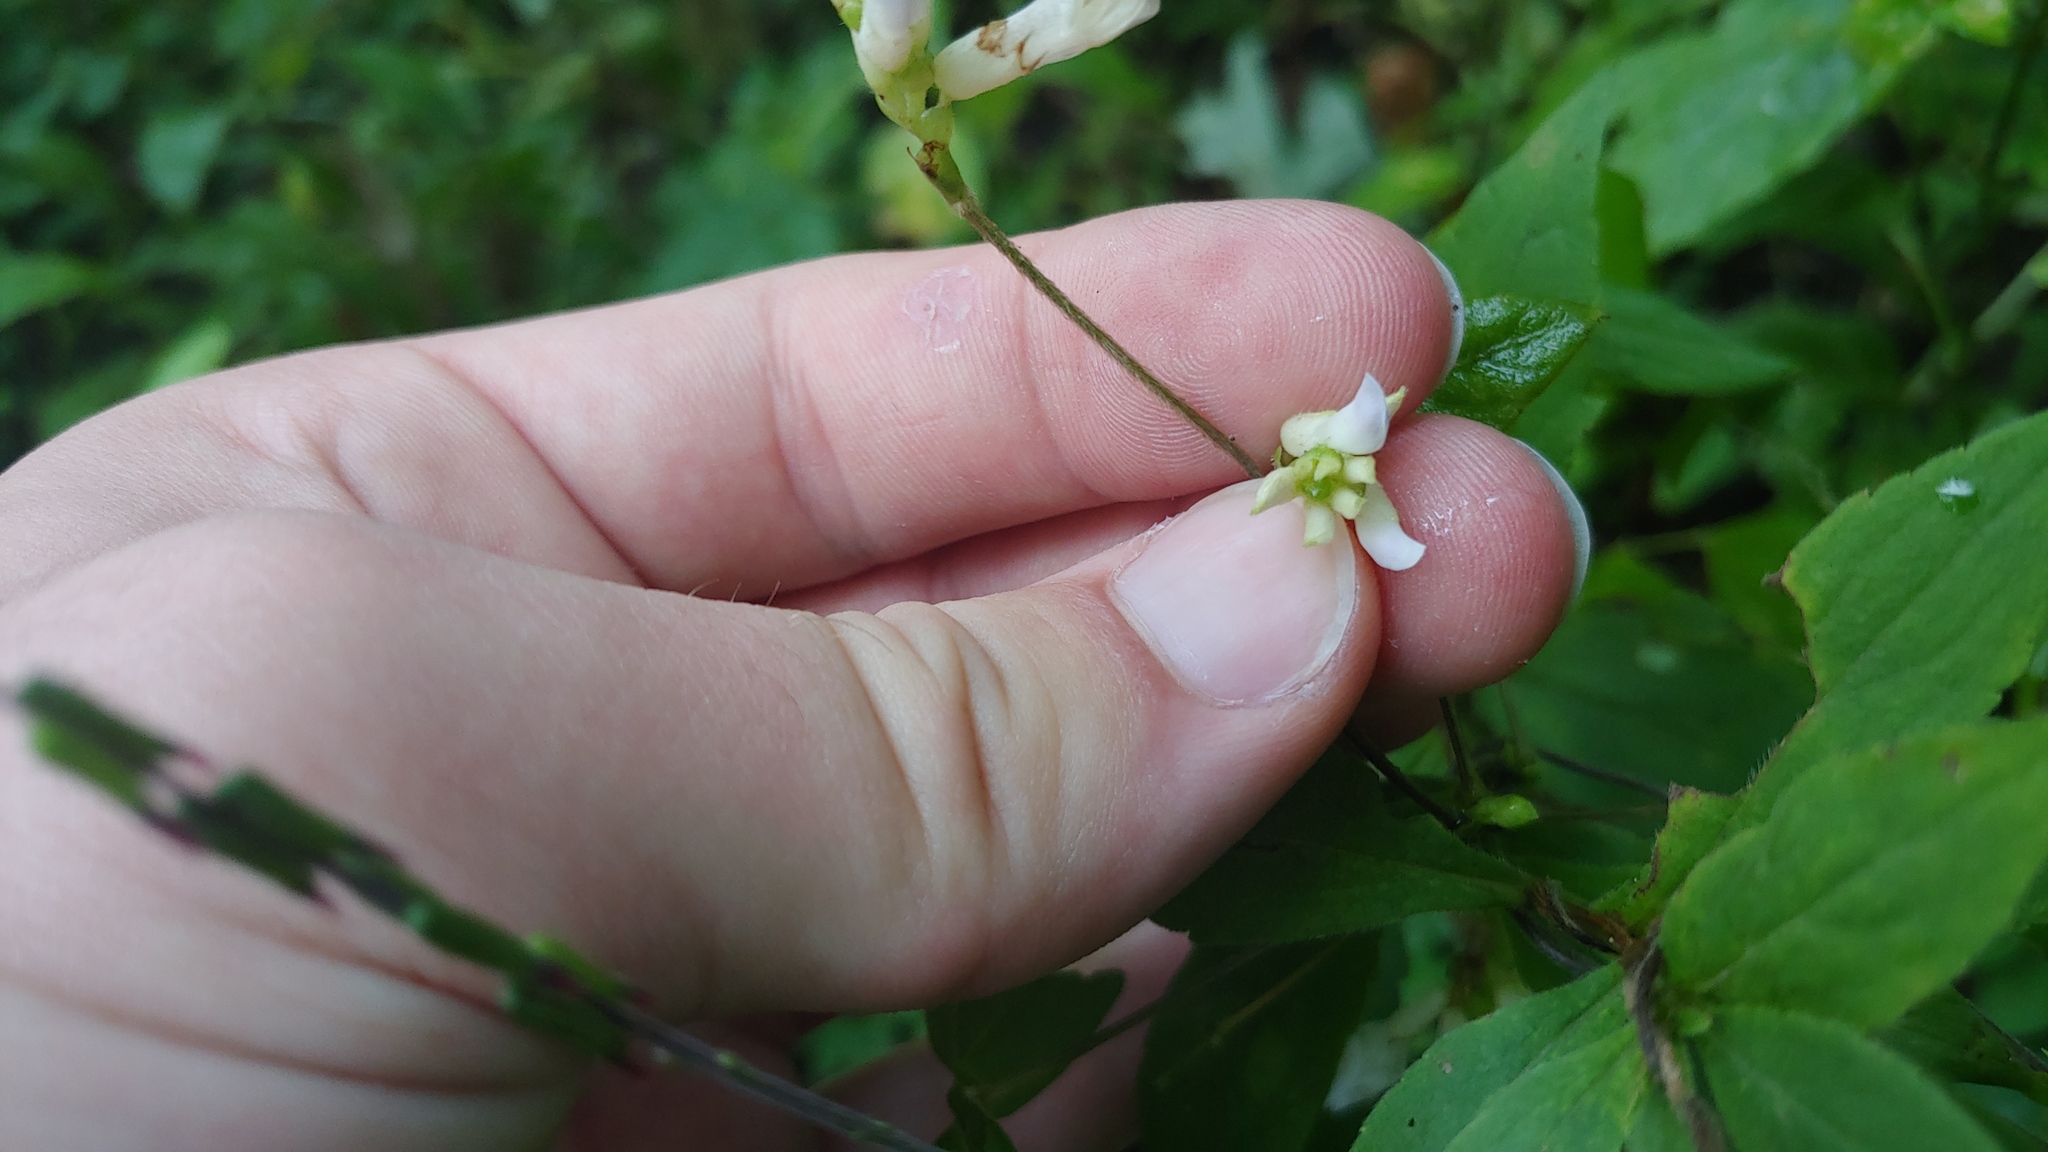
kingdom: Plantae
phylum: Tracheophyta
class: Magnoliopsida
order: Fabales
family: Fabaceae
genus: Amphicarpaea
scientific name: Amphicarpaea bracteata
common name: American hog peanut
